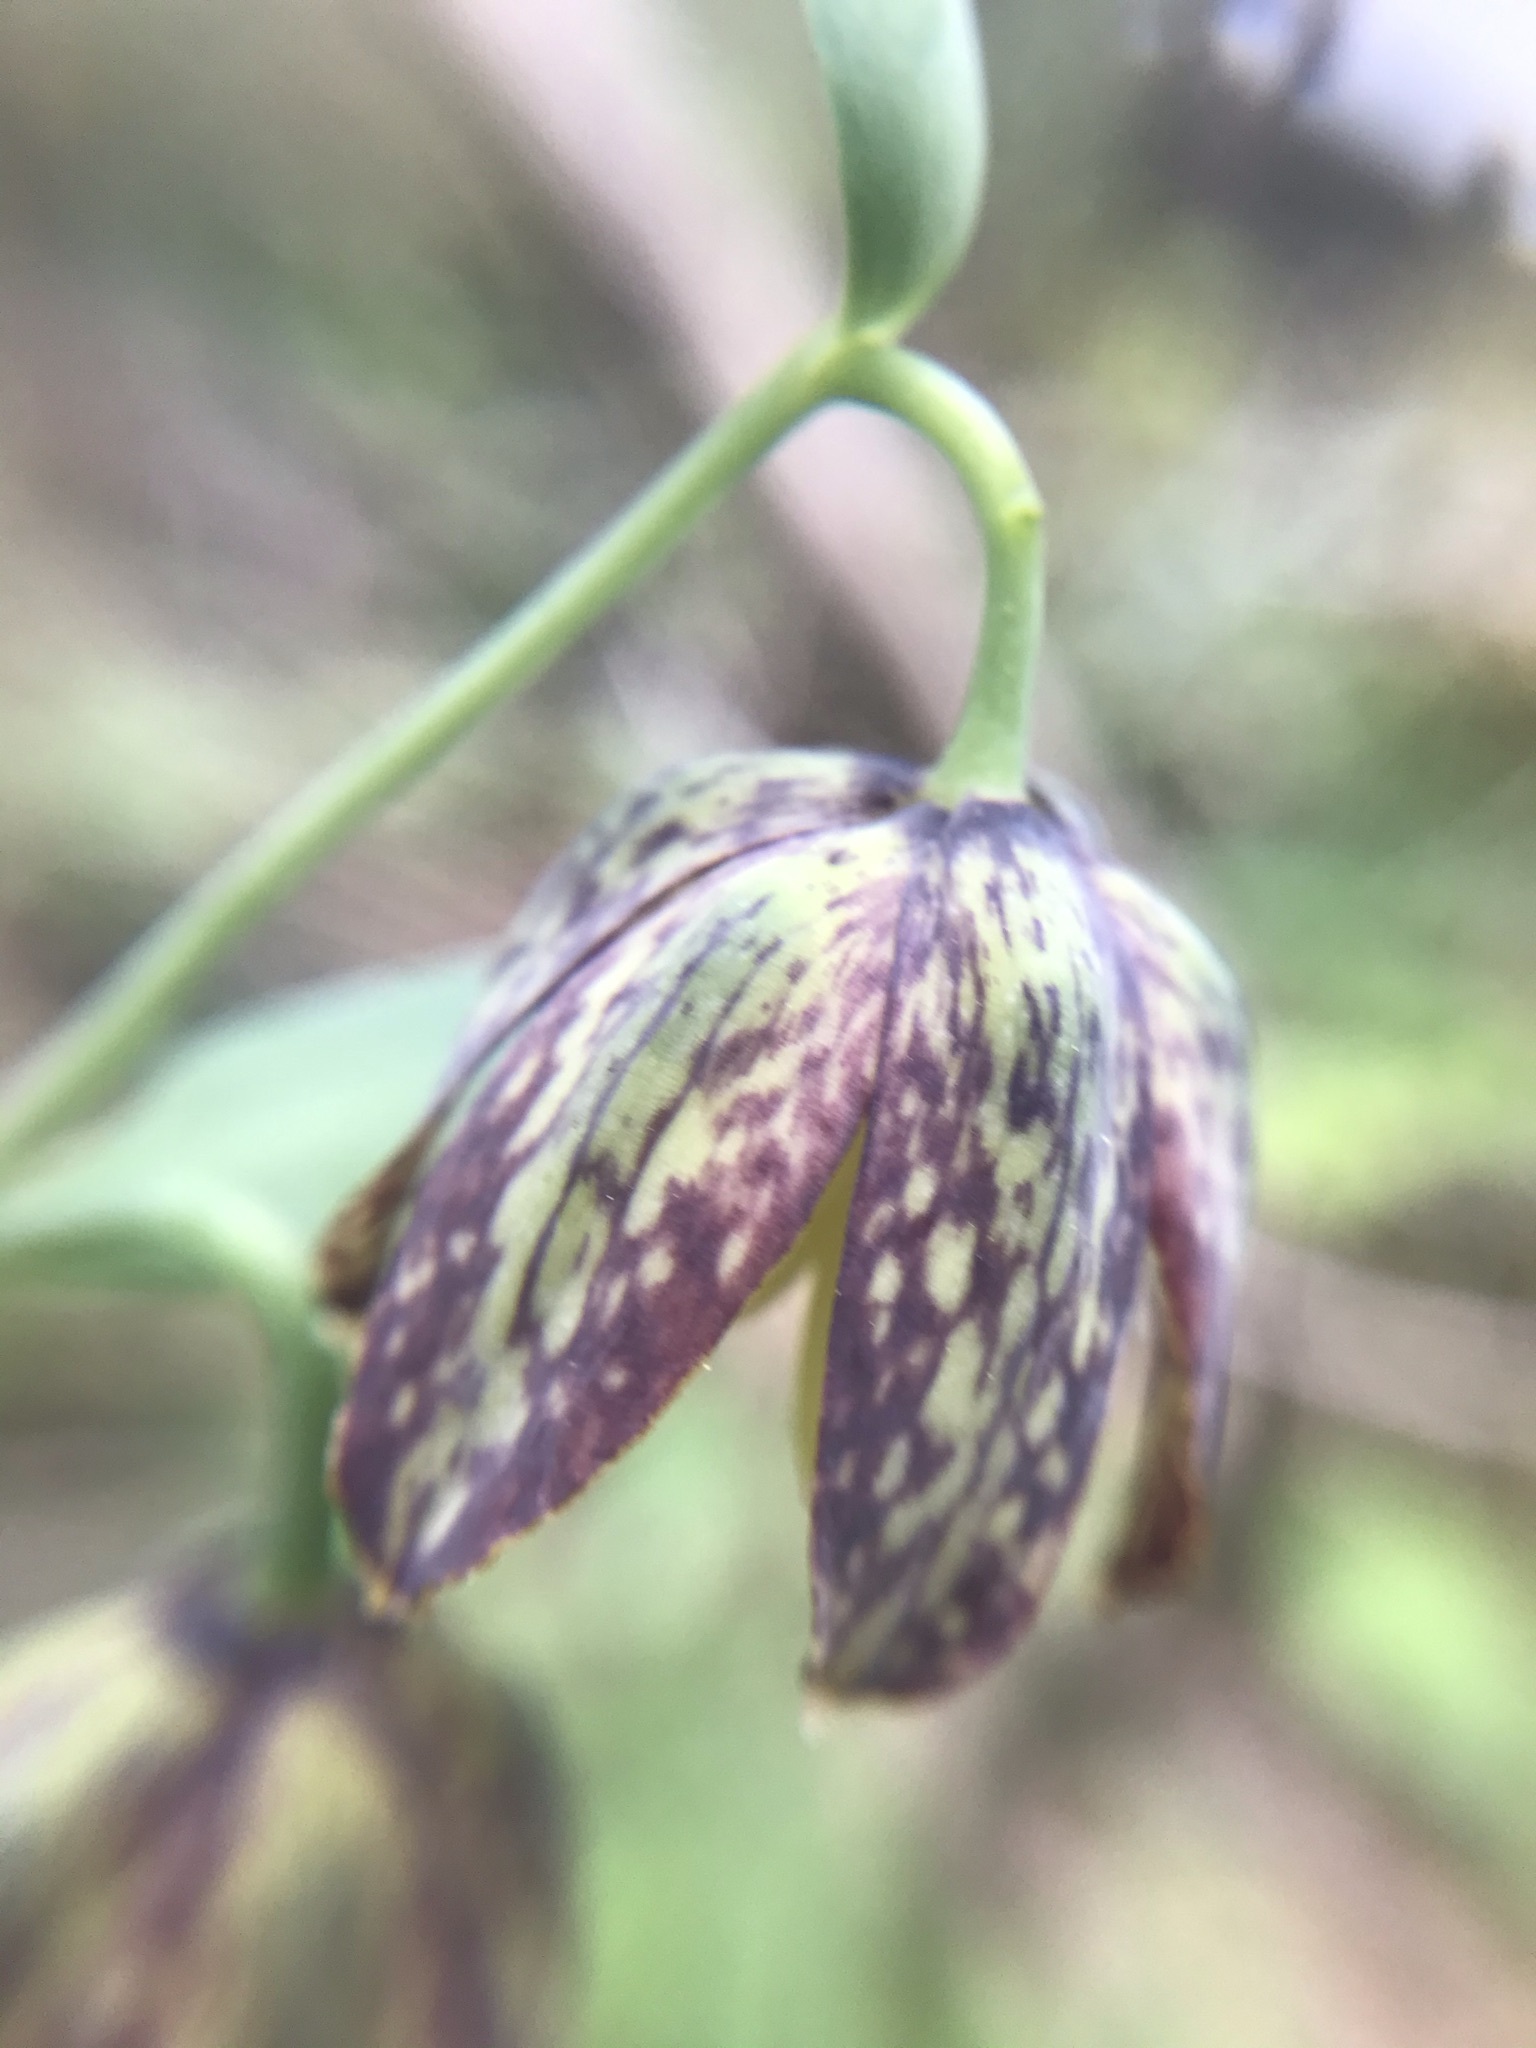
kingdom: Plantae
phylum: Tracheophyta
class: Liliopsida
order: Liliales
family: Liliaceae
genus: Fritillaria
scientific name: Fritillaria affinis
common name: Ojai fritillary
